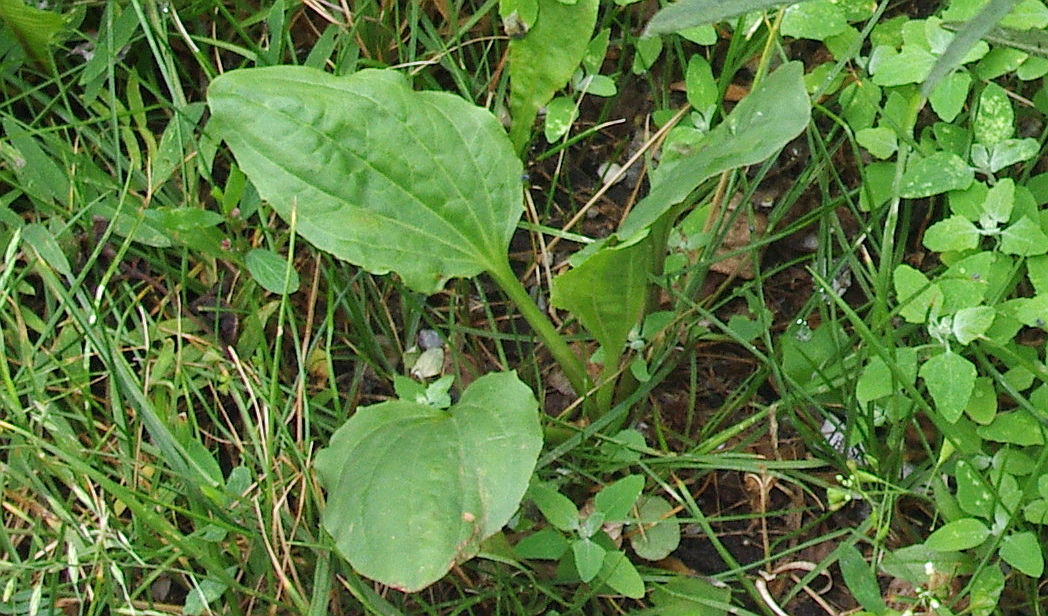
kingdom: Plantae
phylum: Tracheophyta
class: Magnoliopsida
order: Lamiales
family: Plantaginaceae
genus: Plantago
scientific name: Plantago major
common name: Common plantain
